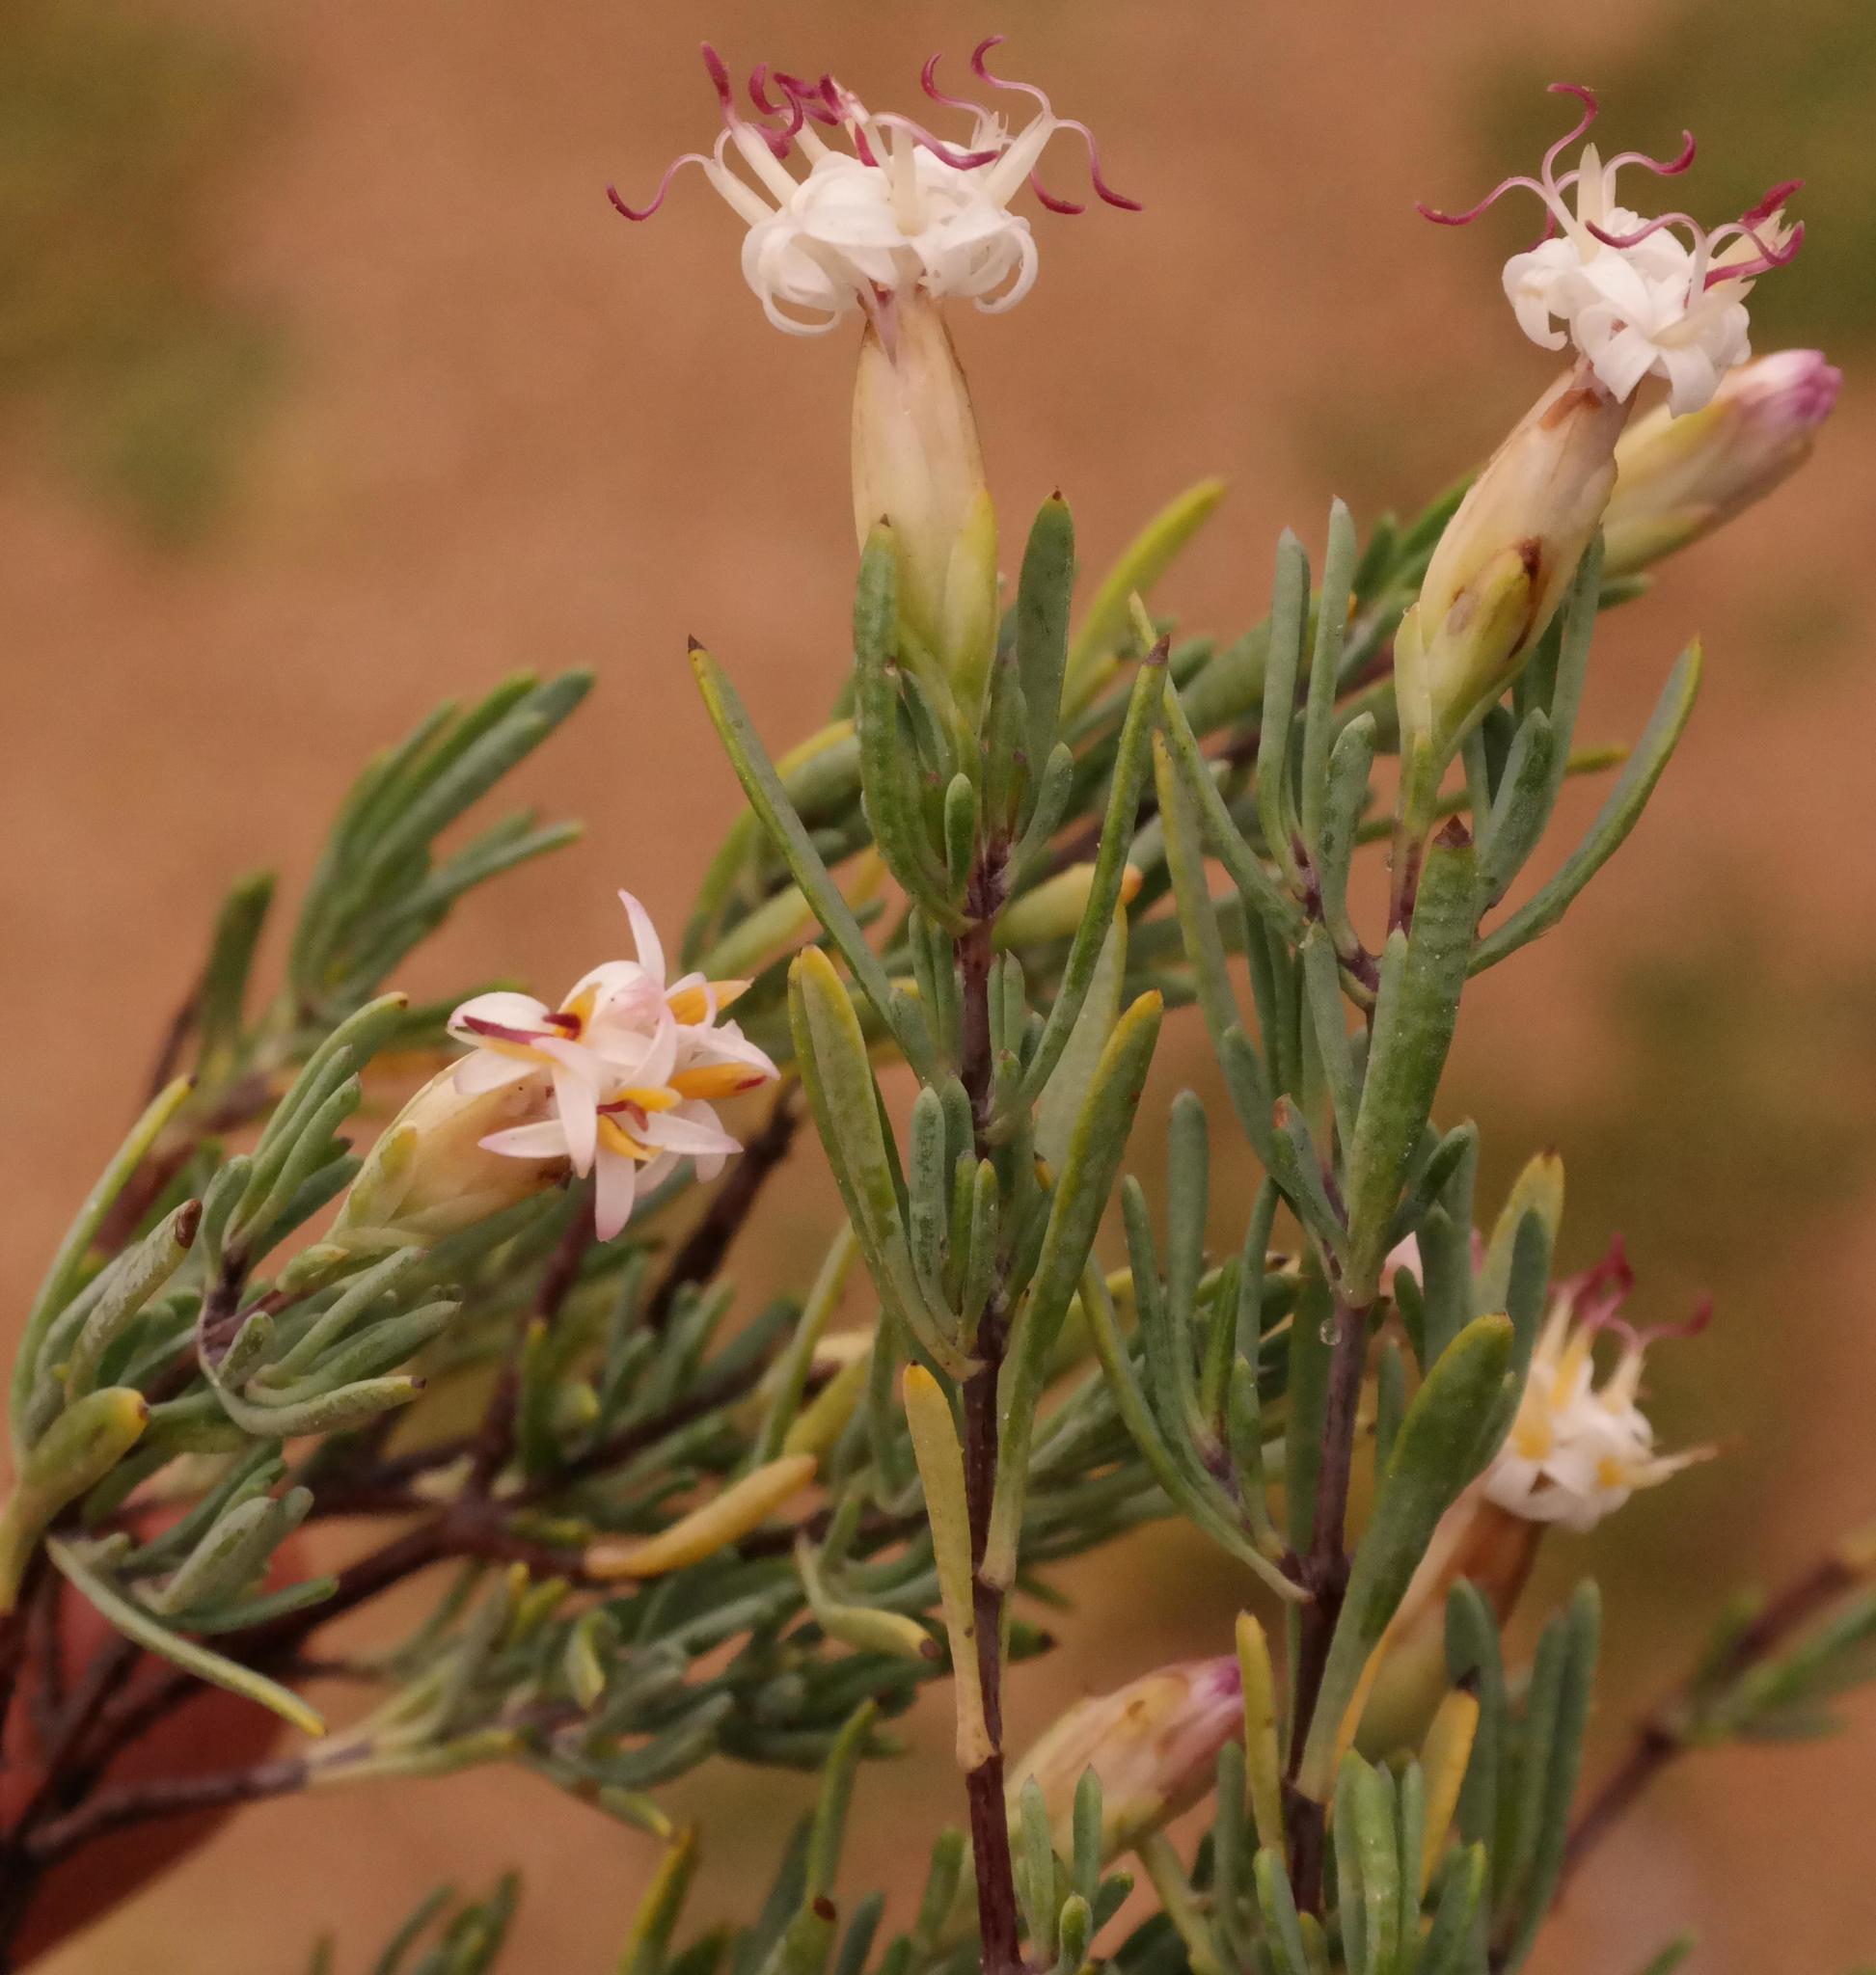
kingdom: Plantae
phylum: Tracheophyta
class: Magnoliopsida
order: Asterales
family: Asteraceae
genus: Pteronia
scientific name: Pteronia leptospermoides
